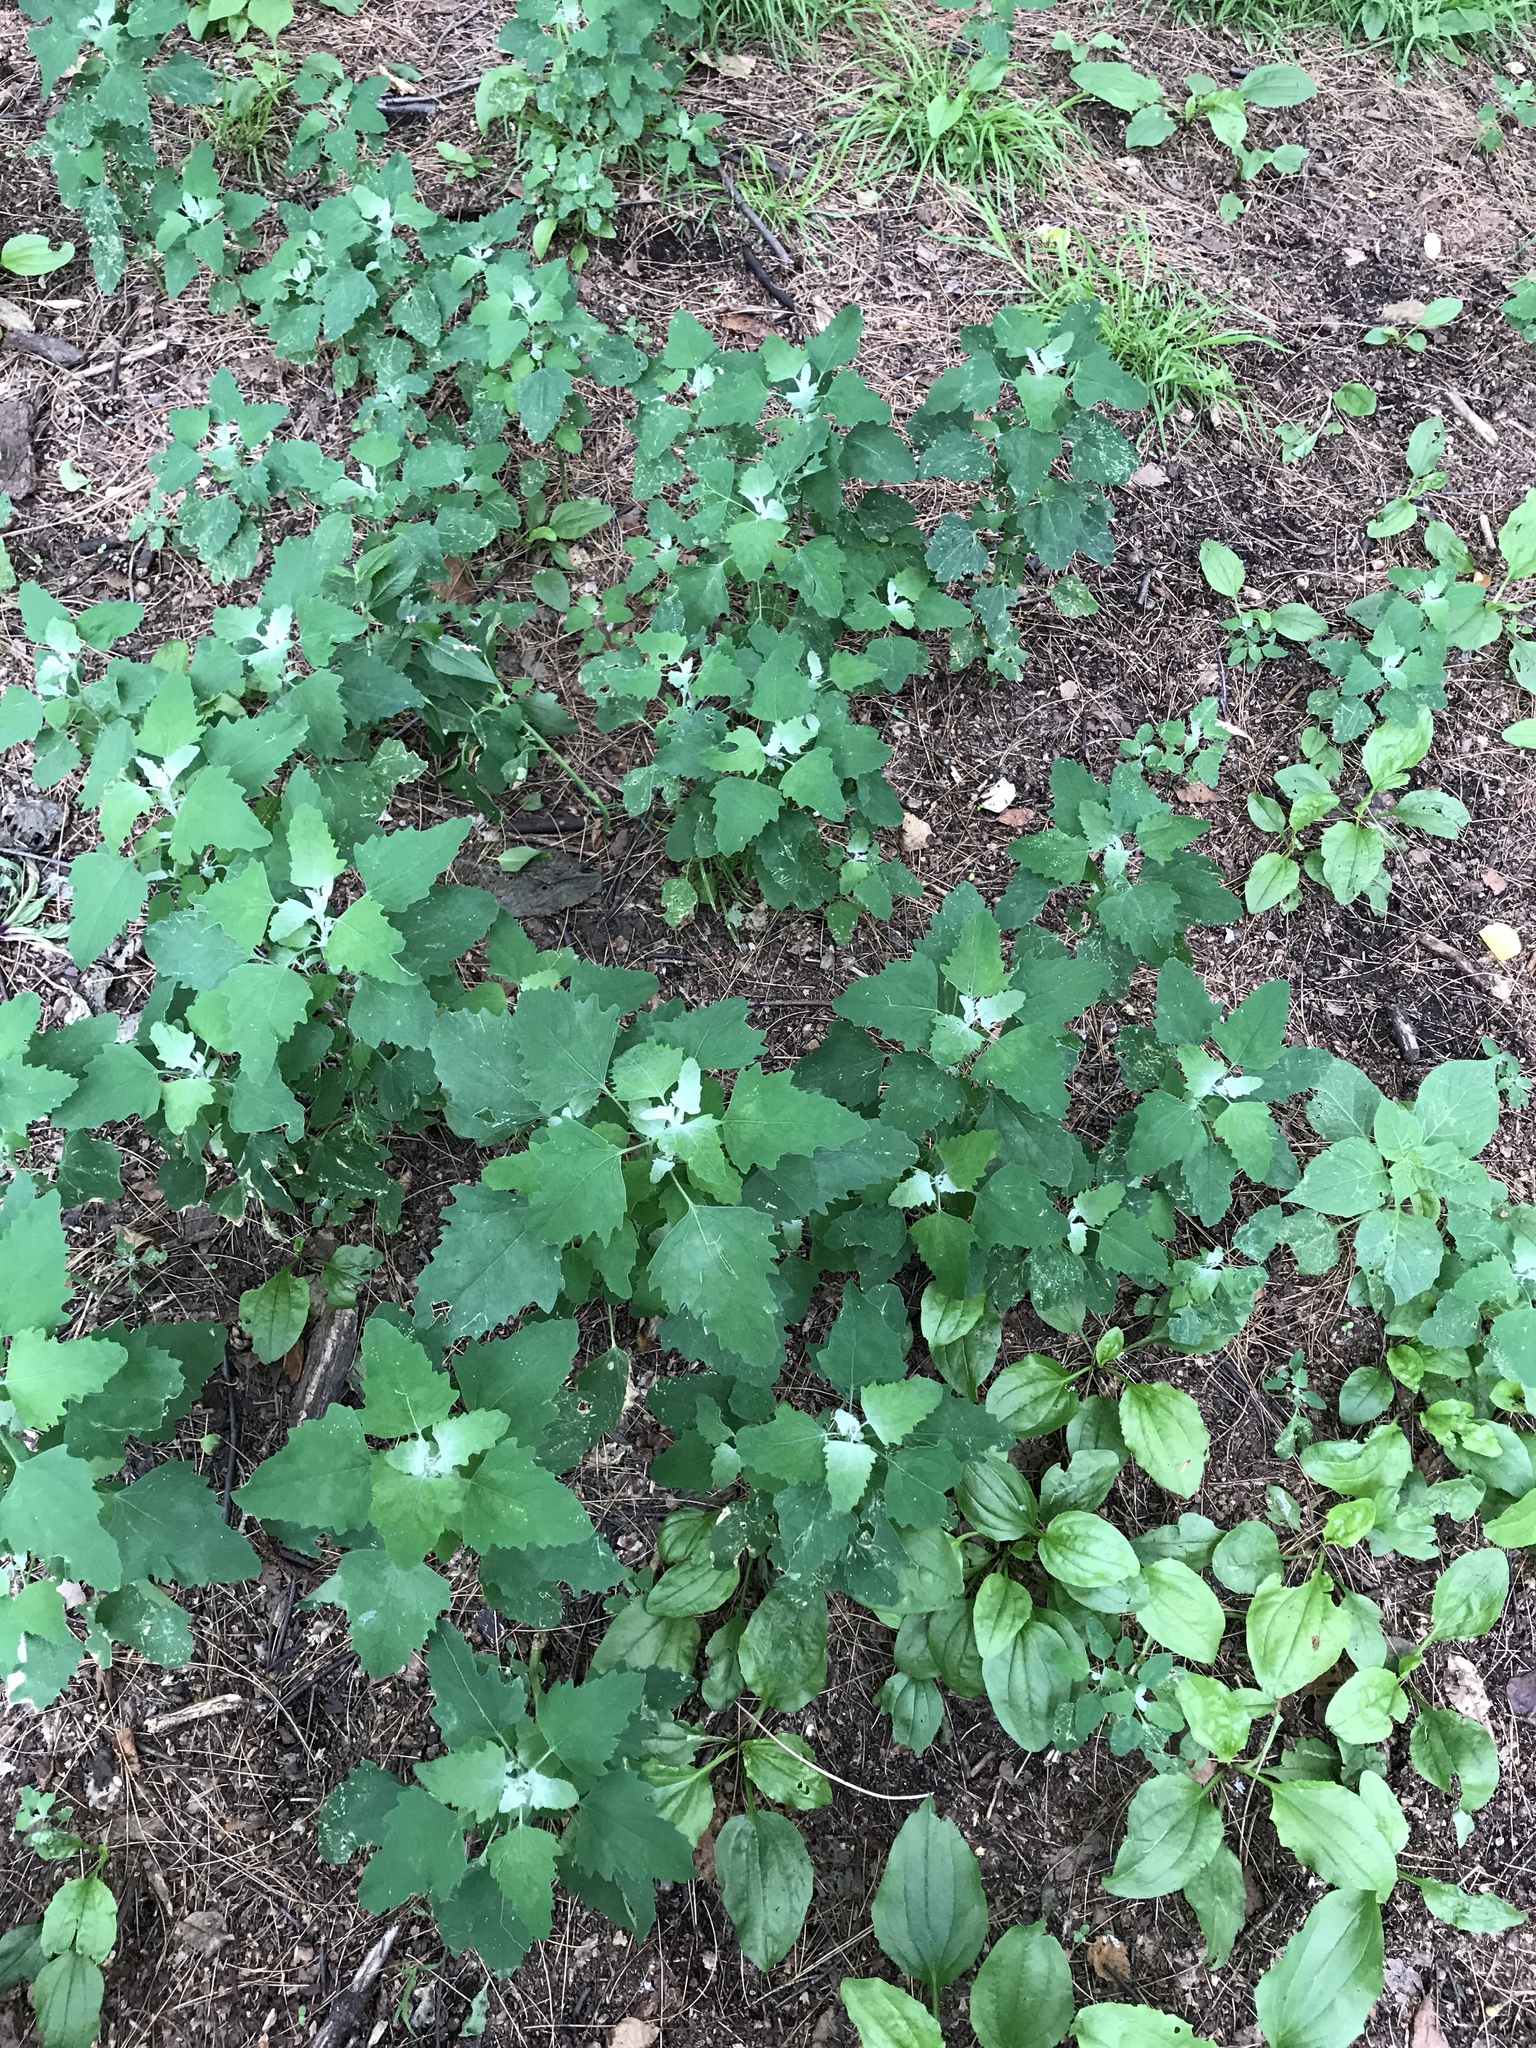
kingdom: Plantae
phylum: Tracheophyta
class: Magnoliopsida
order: Caryophyllales
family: Amaranthaceae
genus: Chenopodium
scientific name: Chenopodium album
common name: Fat-hen
